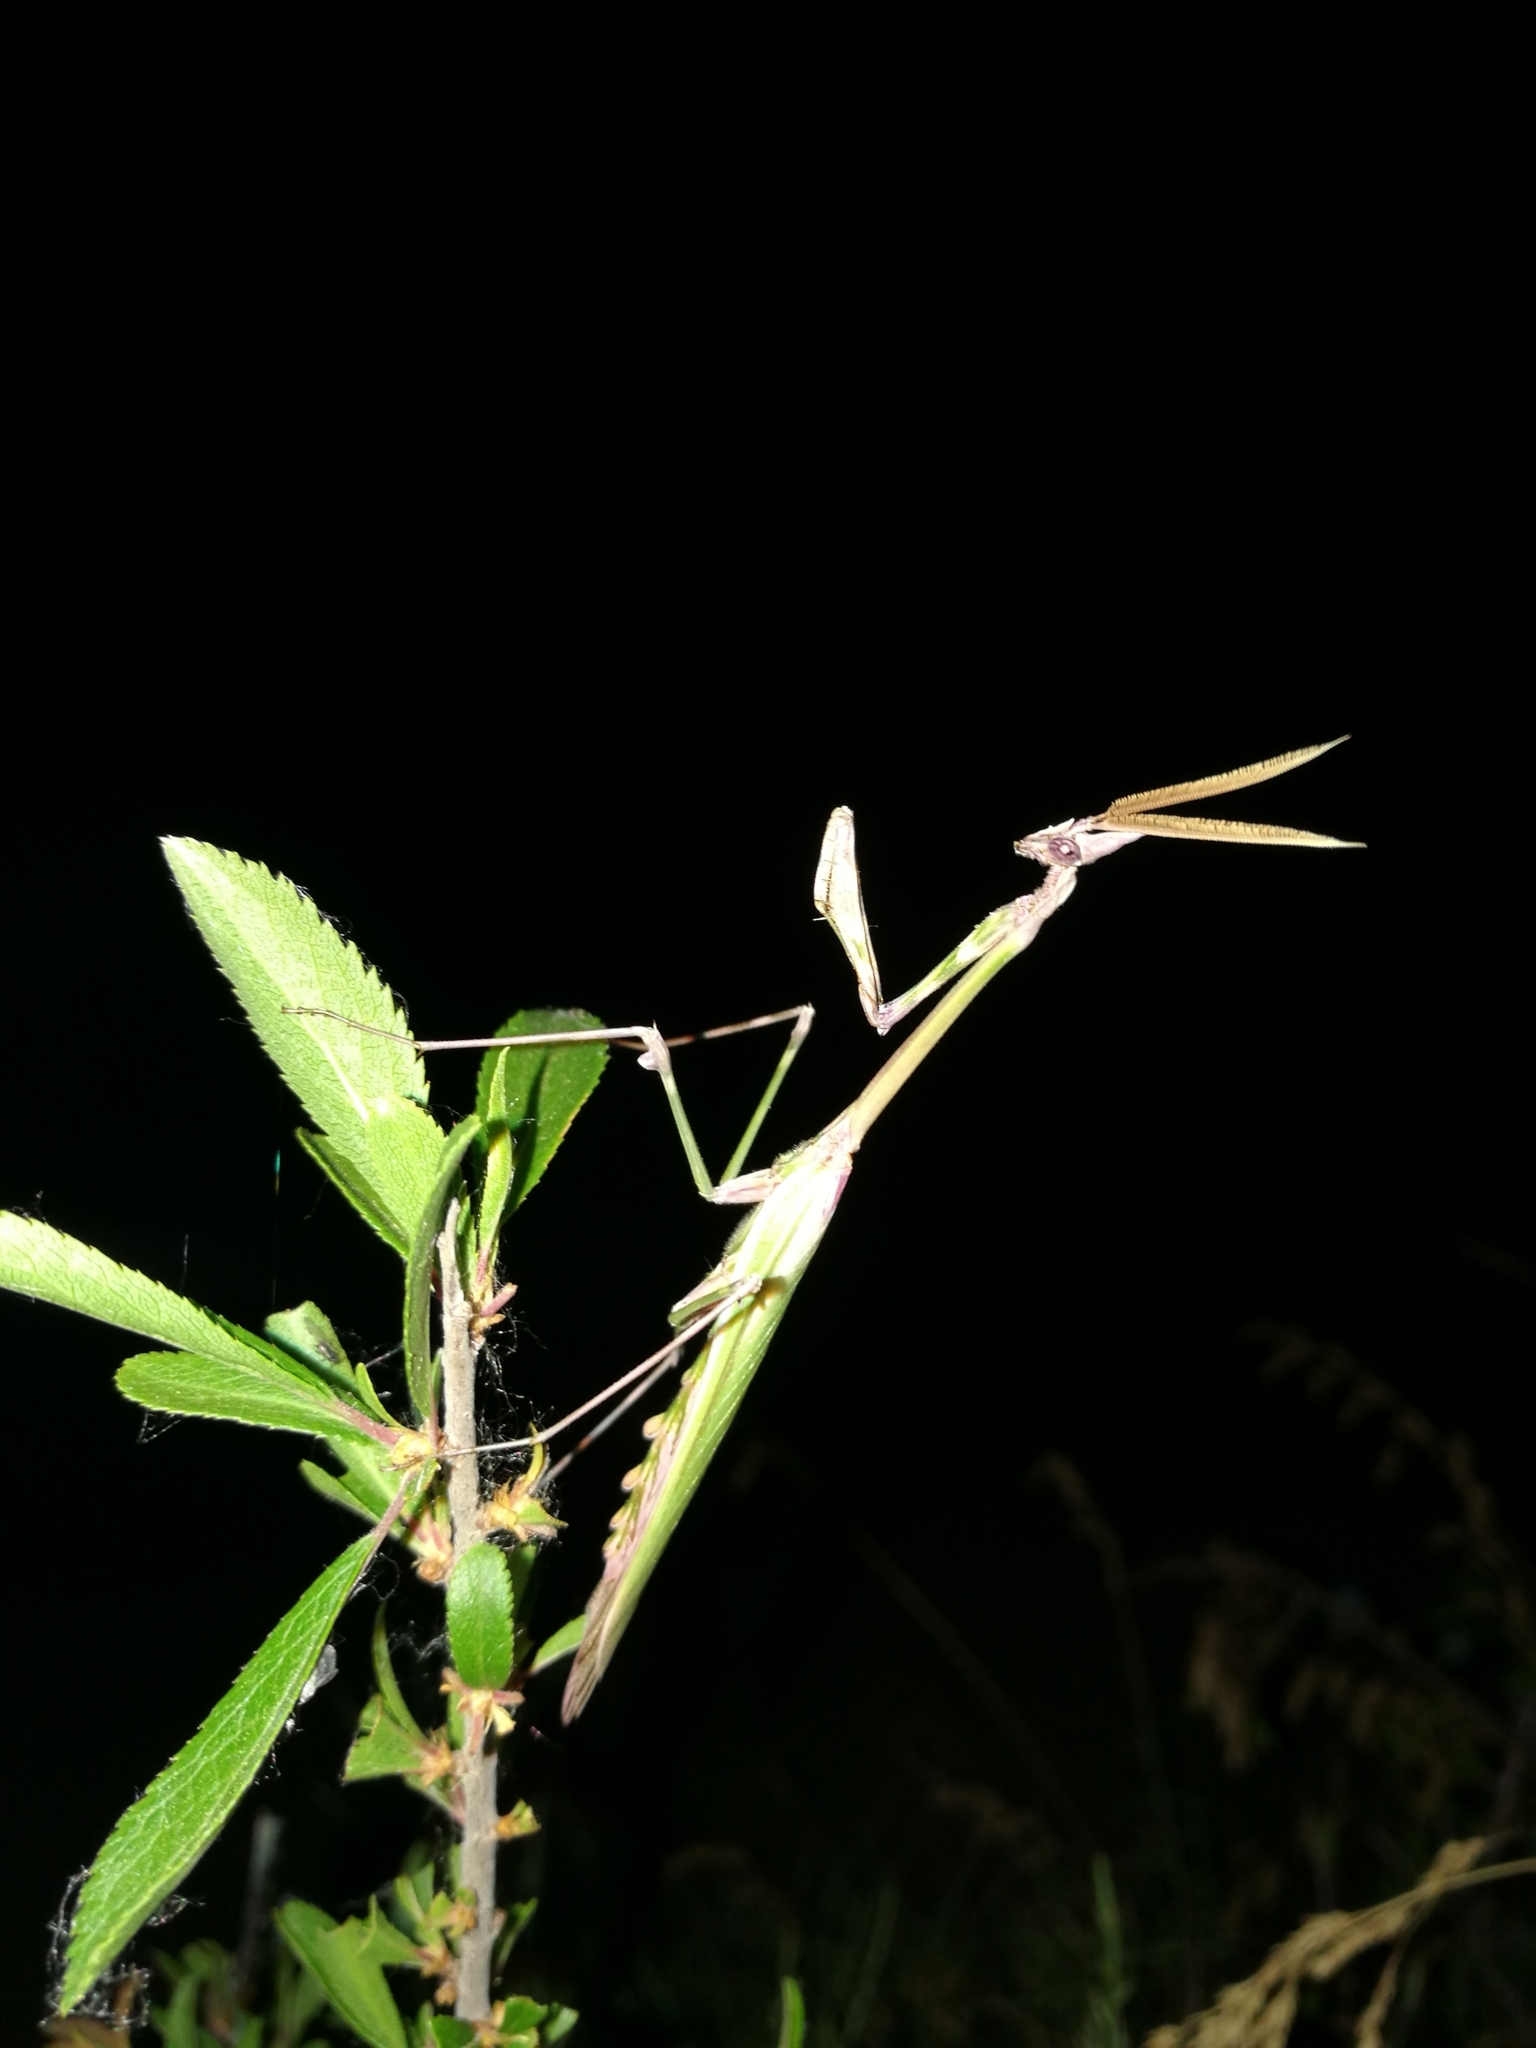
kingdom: Animalia
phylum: Arthropoda
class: Insecta
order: Mantodea
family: Empusidae
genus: Empusa
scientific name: Empusa pennata
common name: Conehead mantis
